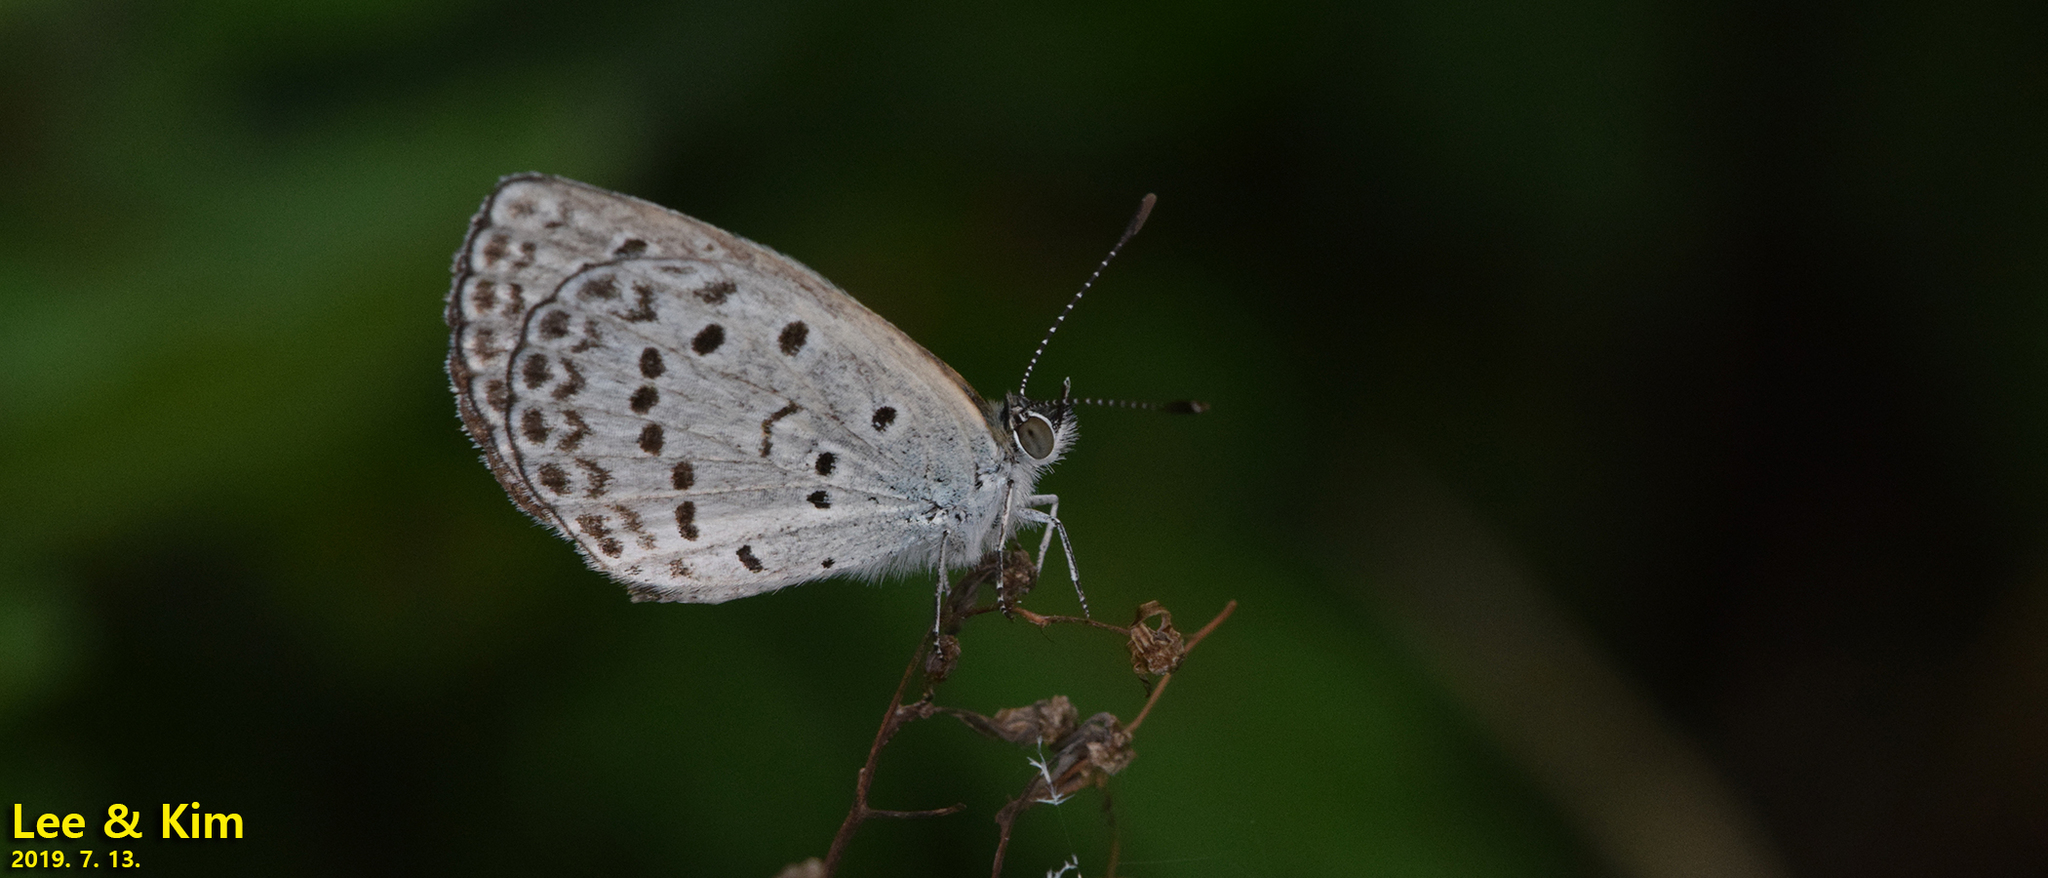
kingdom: Animalia
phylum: Arthropoda
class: Insecta
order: Lepidoptera
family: Lycaenidae
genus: Pseudozizeeria
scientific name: Pseudozizeeria maha
